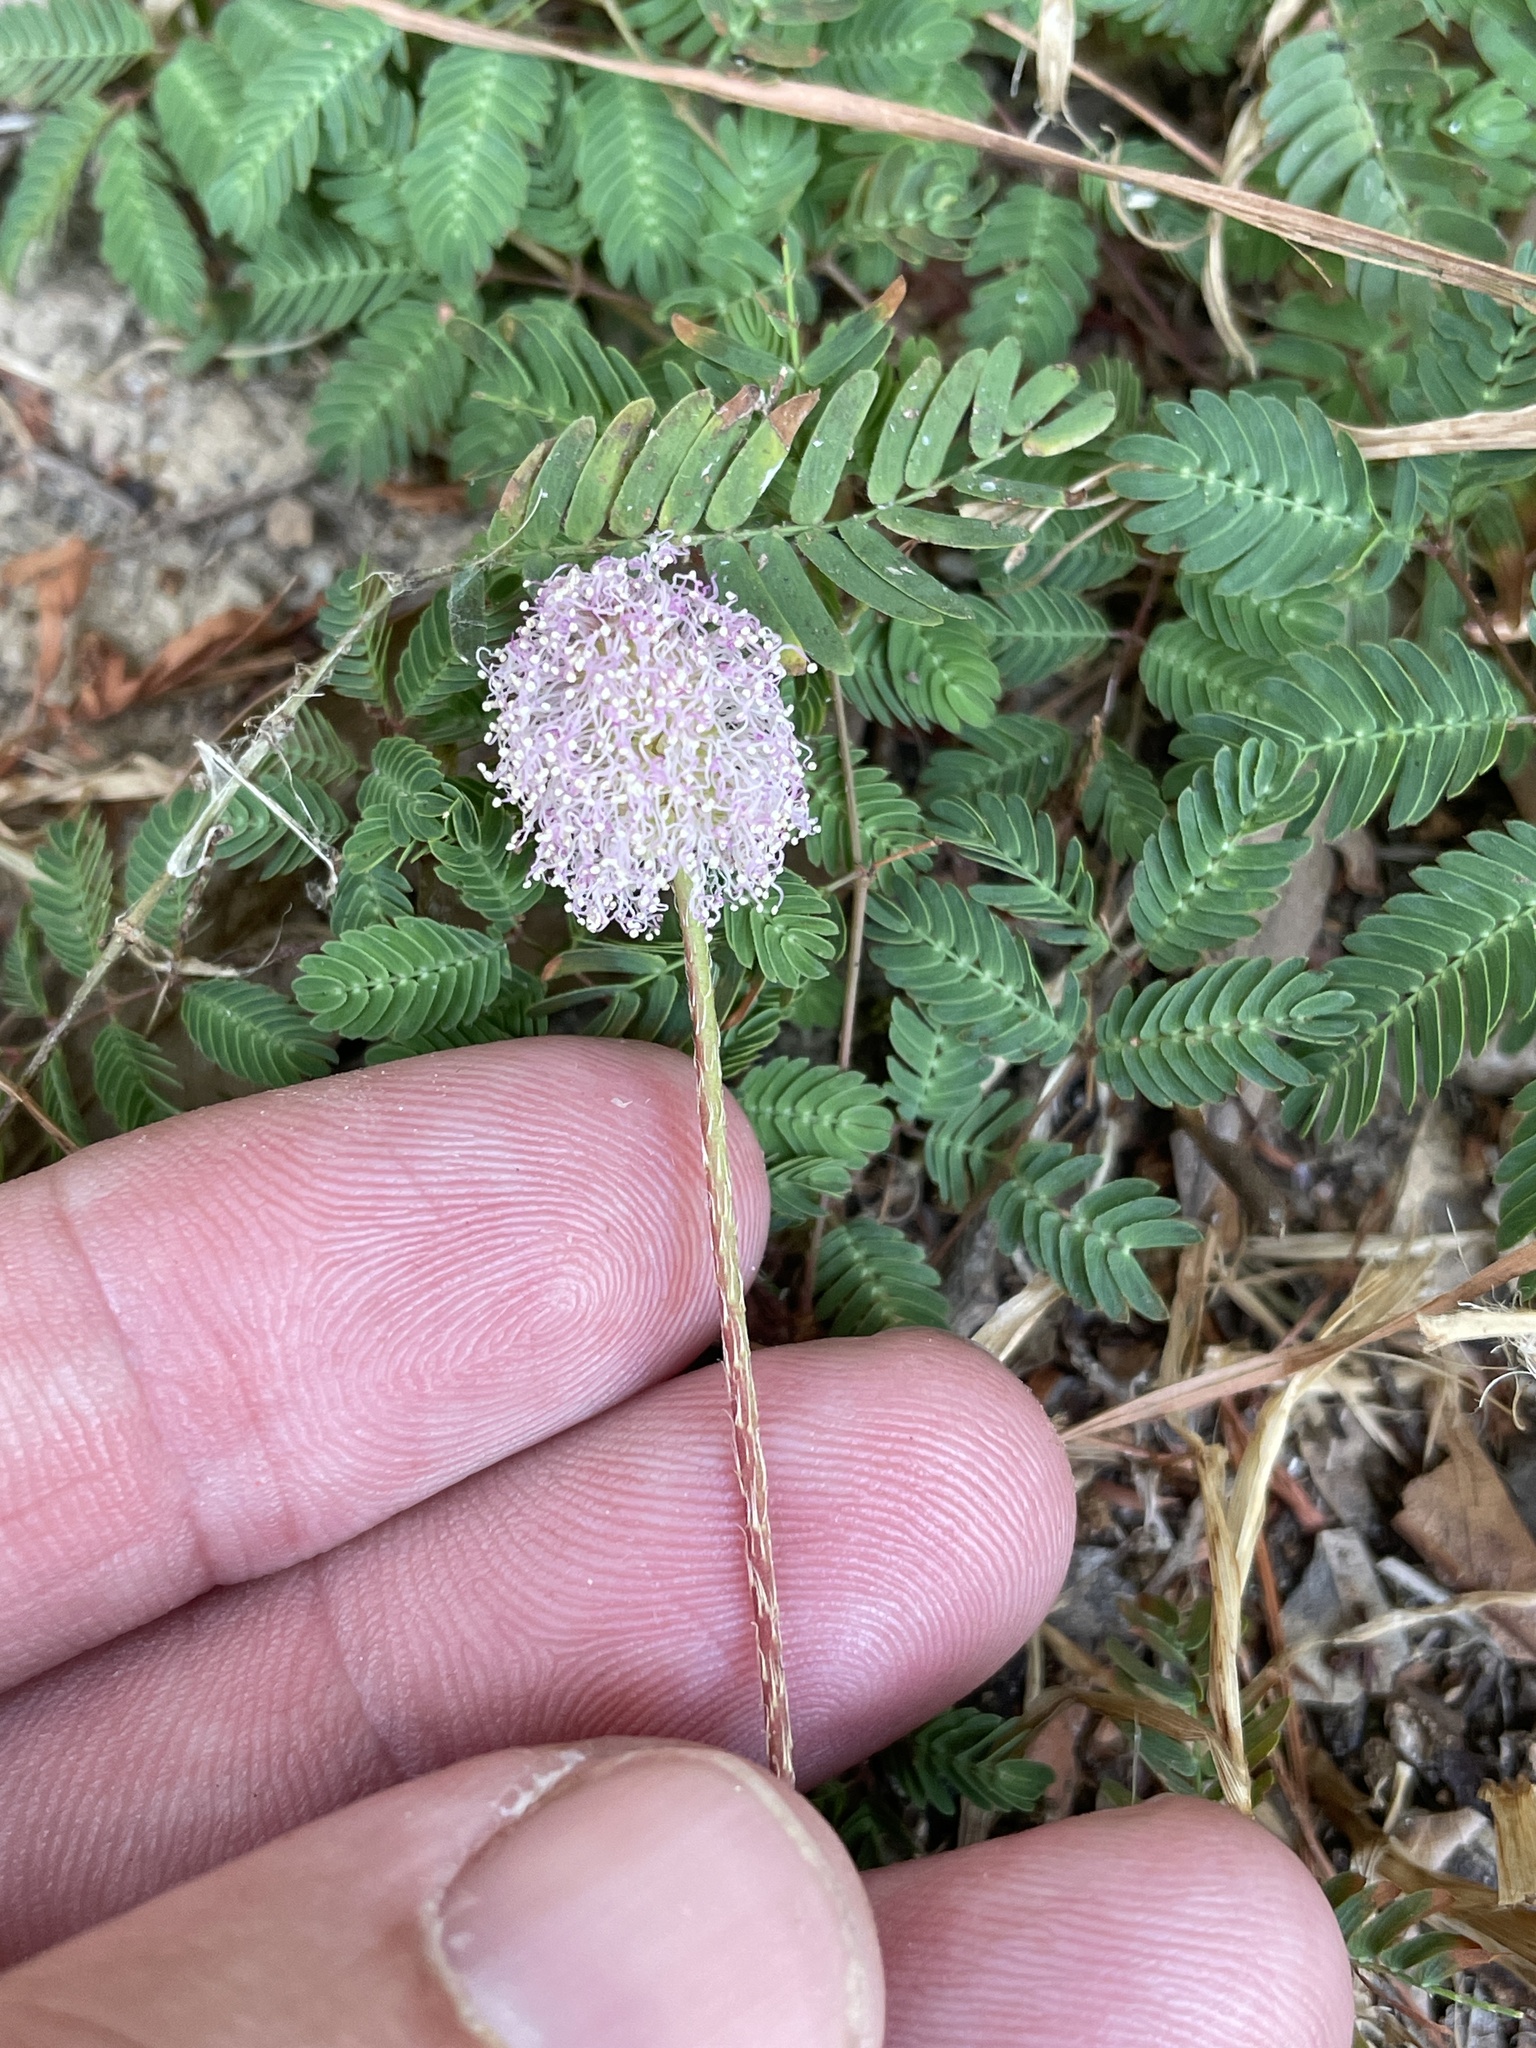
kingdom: Plantae
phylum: Tracheophyta
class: Magnoliopsida
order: Fabales
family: Fabaceae
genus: Mimosa
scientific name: Mimosa strigillosa
